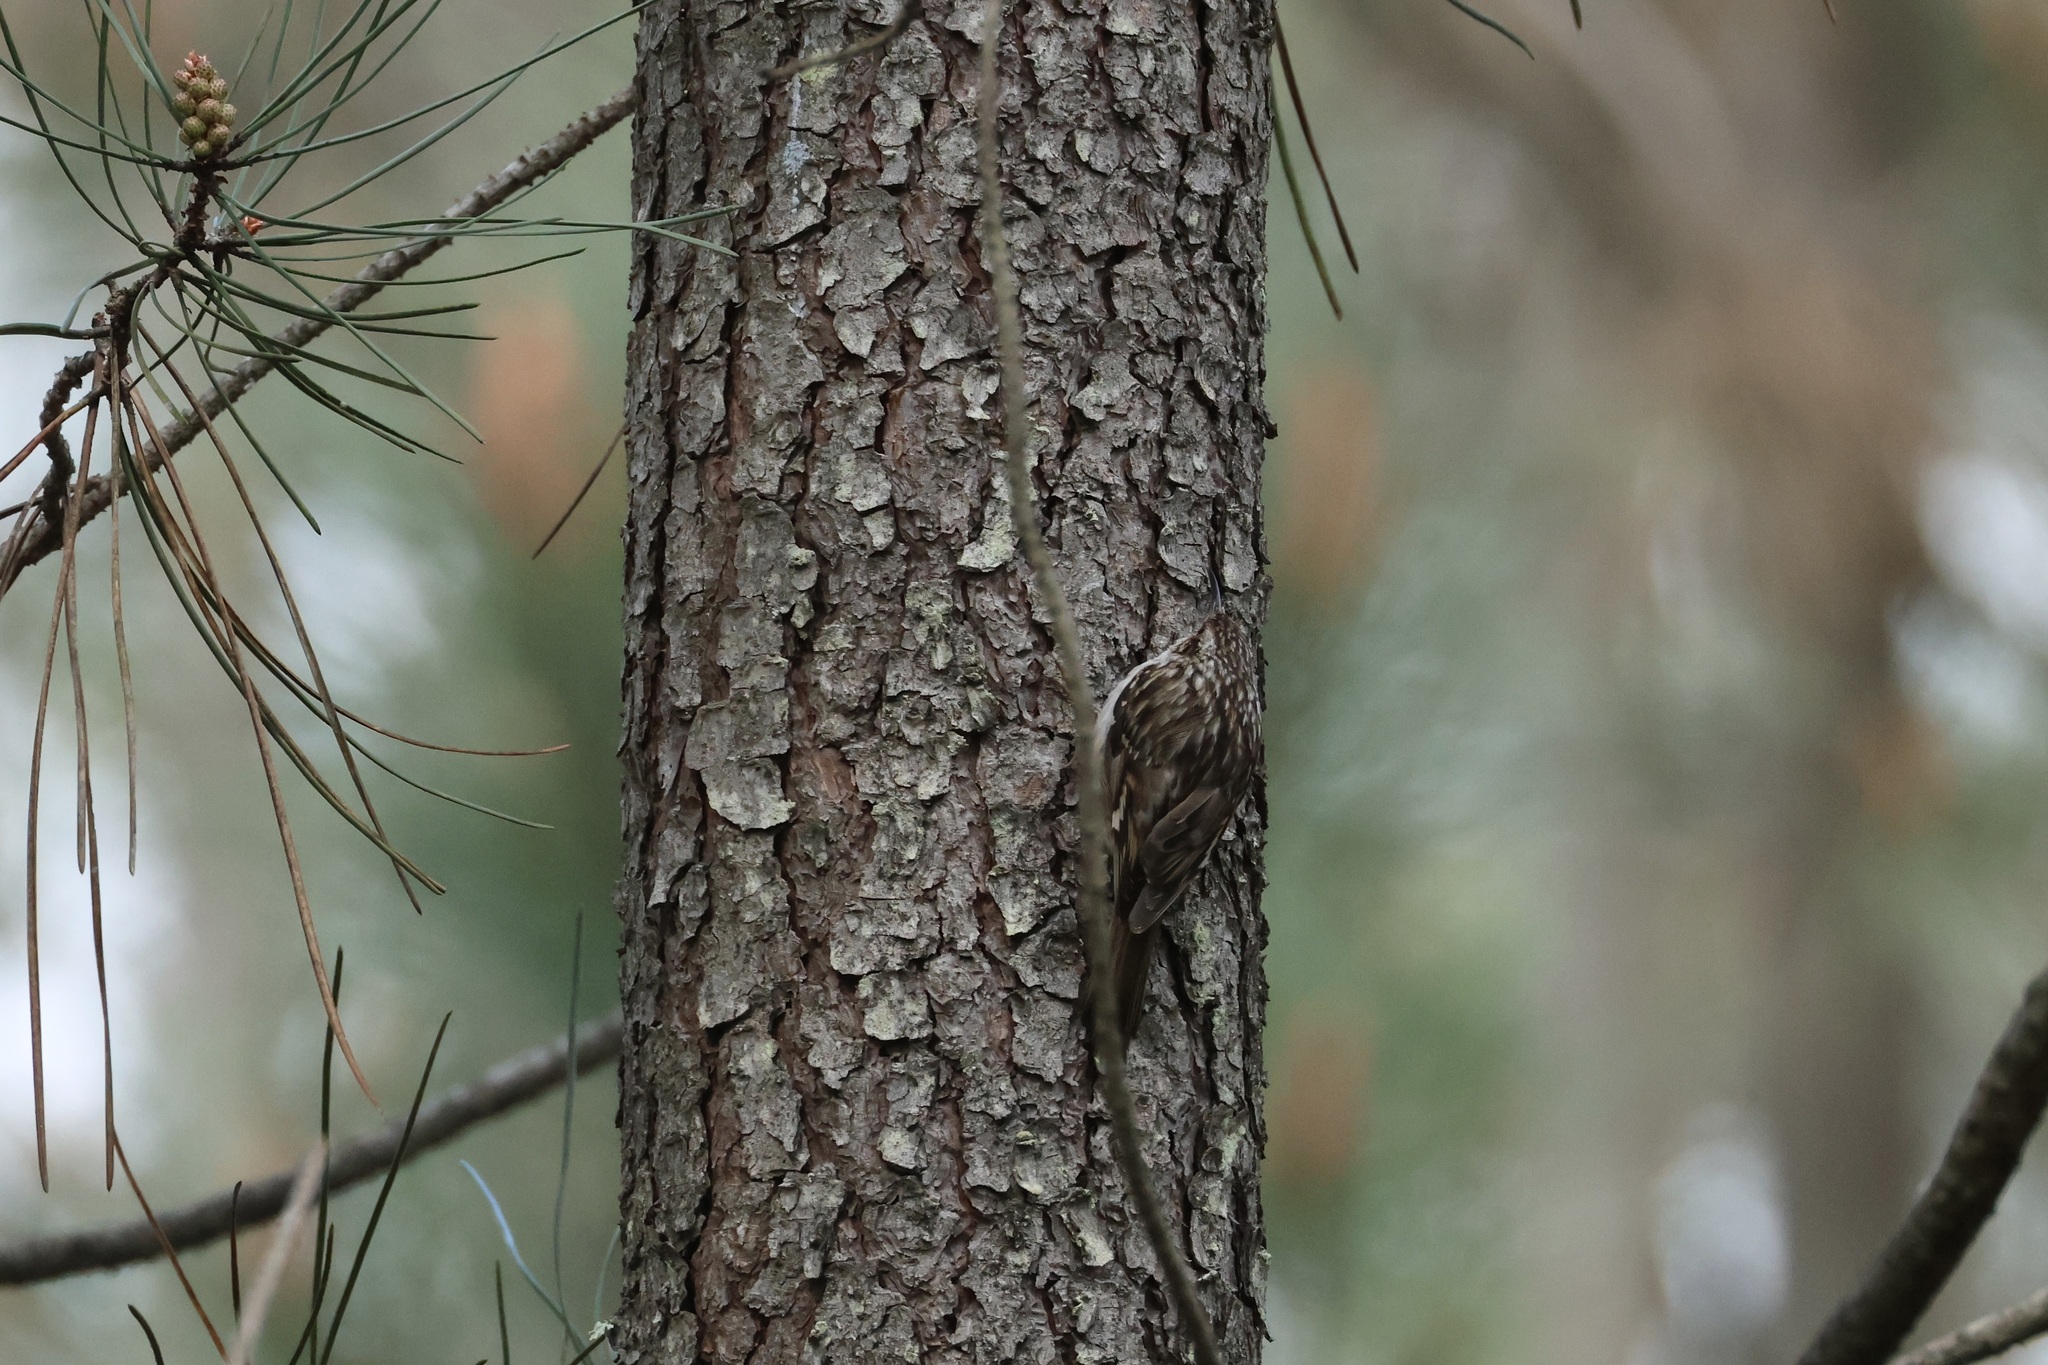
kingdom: Animalia
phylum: Chordata
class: Aves
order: Passeriformes
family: Certhiidae
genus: Certhia
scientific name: Certhia brachydactyla
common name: Short-toed treecreeper
